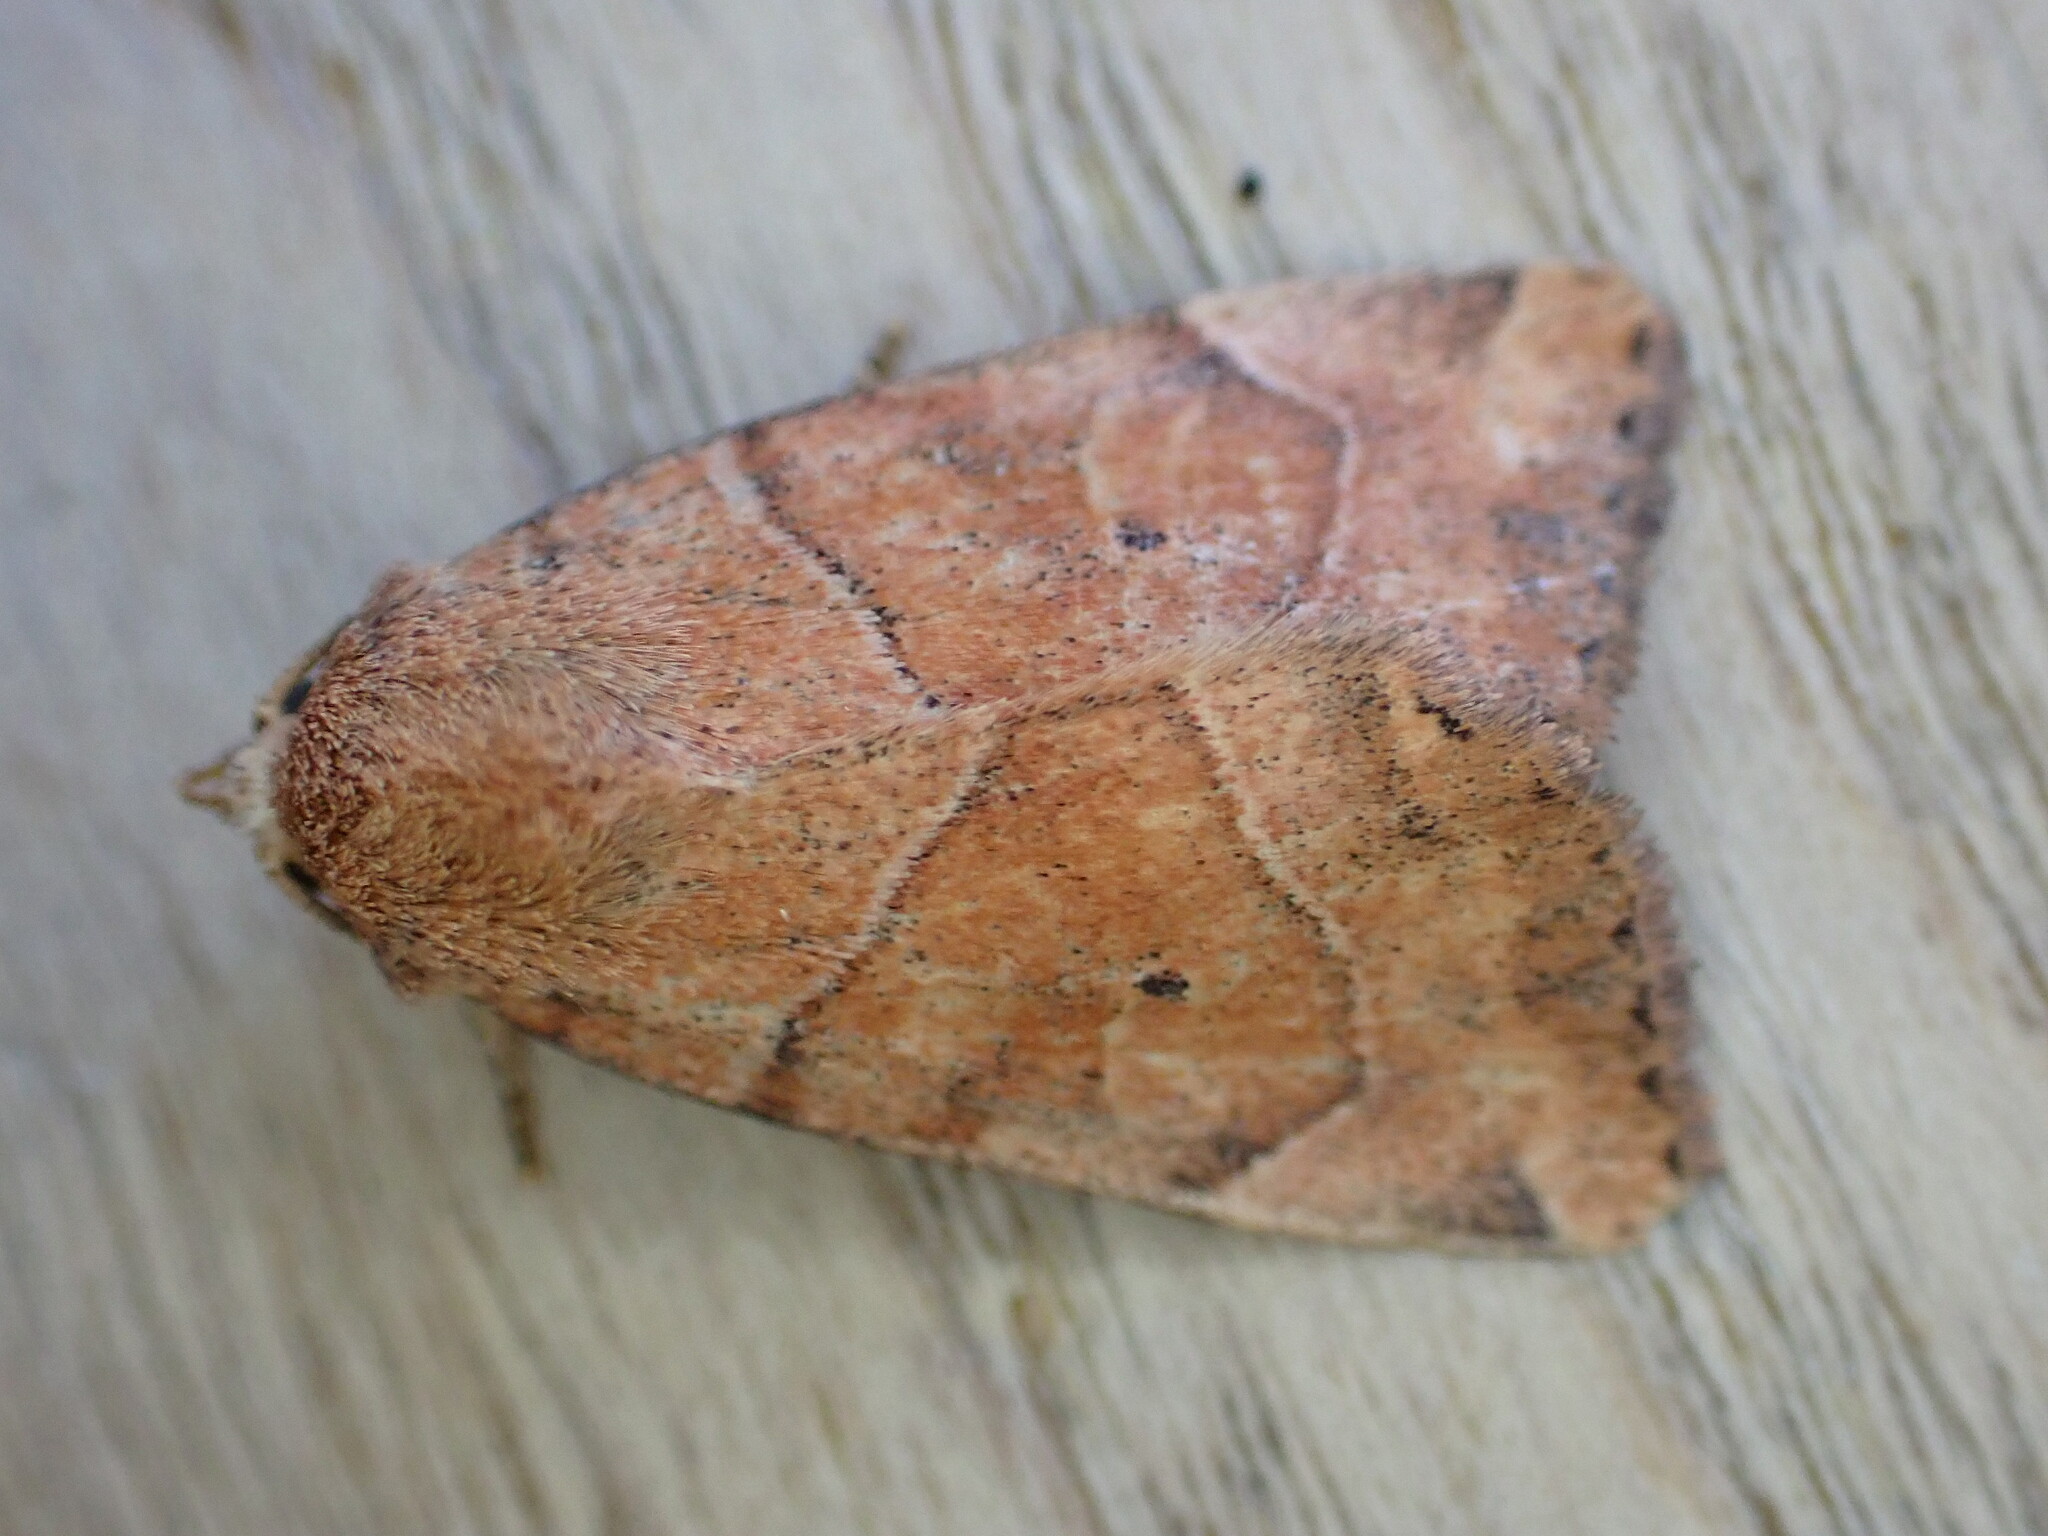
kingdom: Animalia
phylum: Arthropoda
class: Insecta
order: Lepidoptera
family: Noctuidae
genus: Cosmia
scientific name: Cosmia trapezina
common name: Dun-bar
